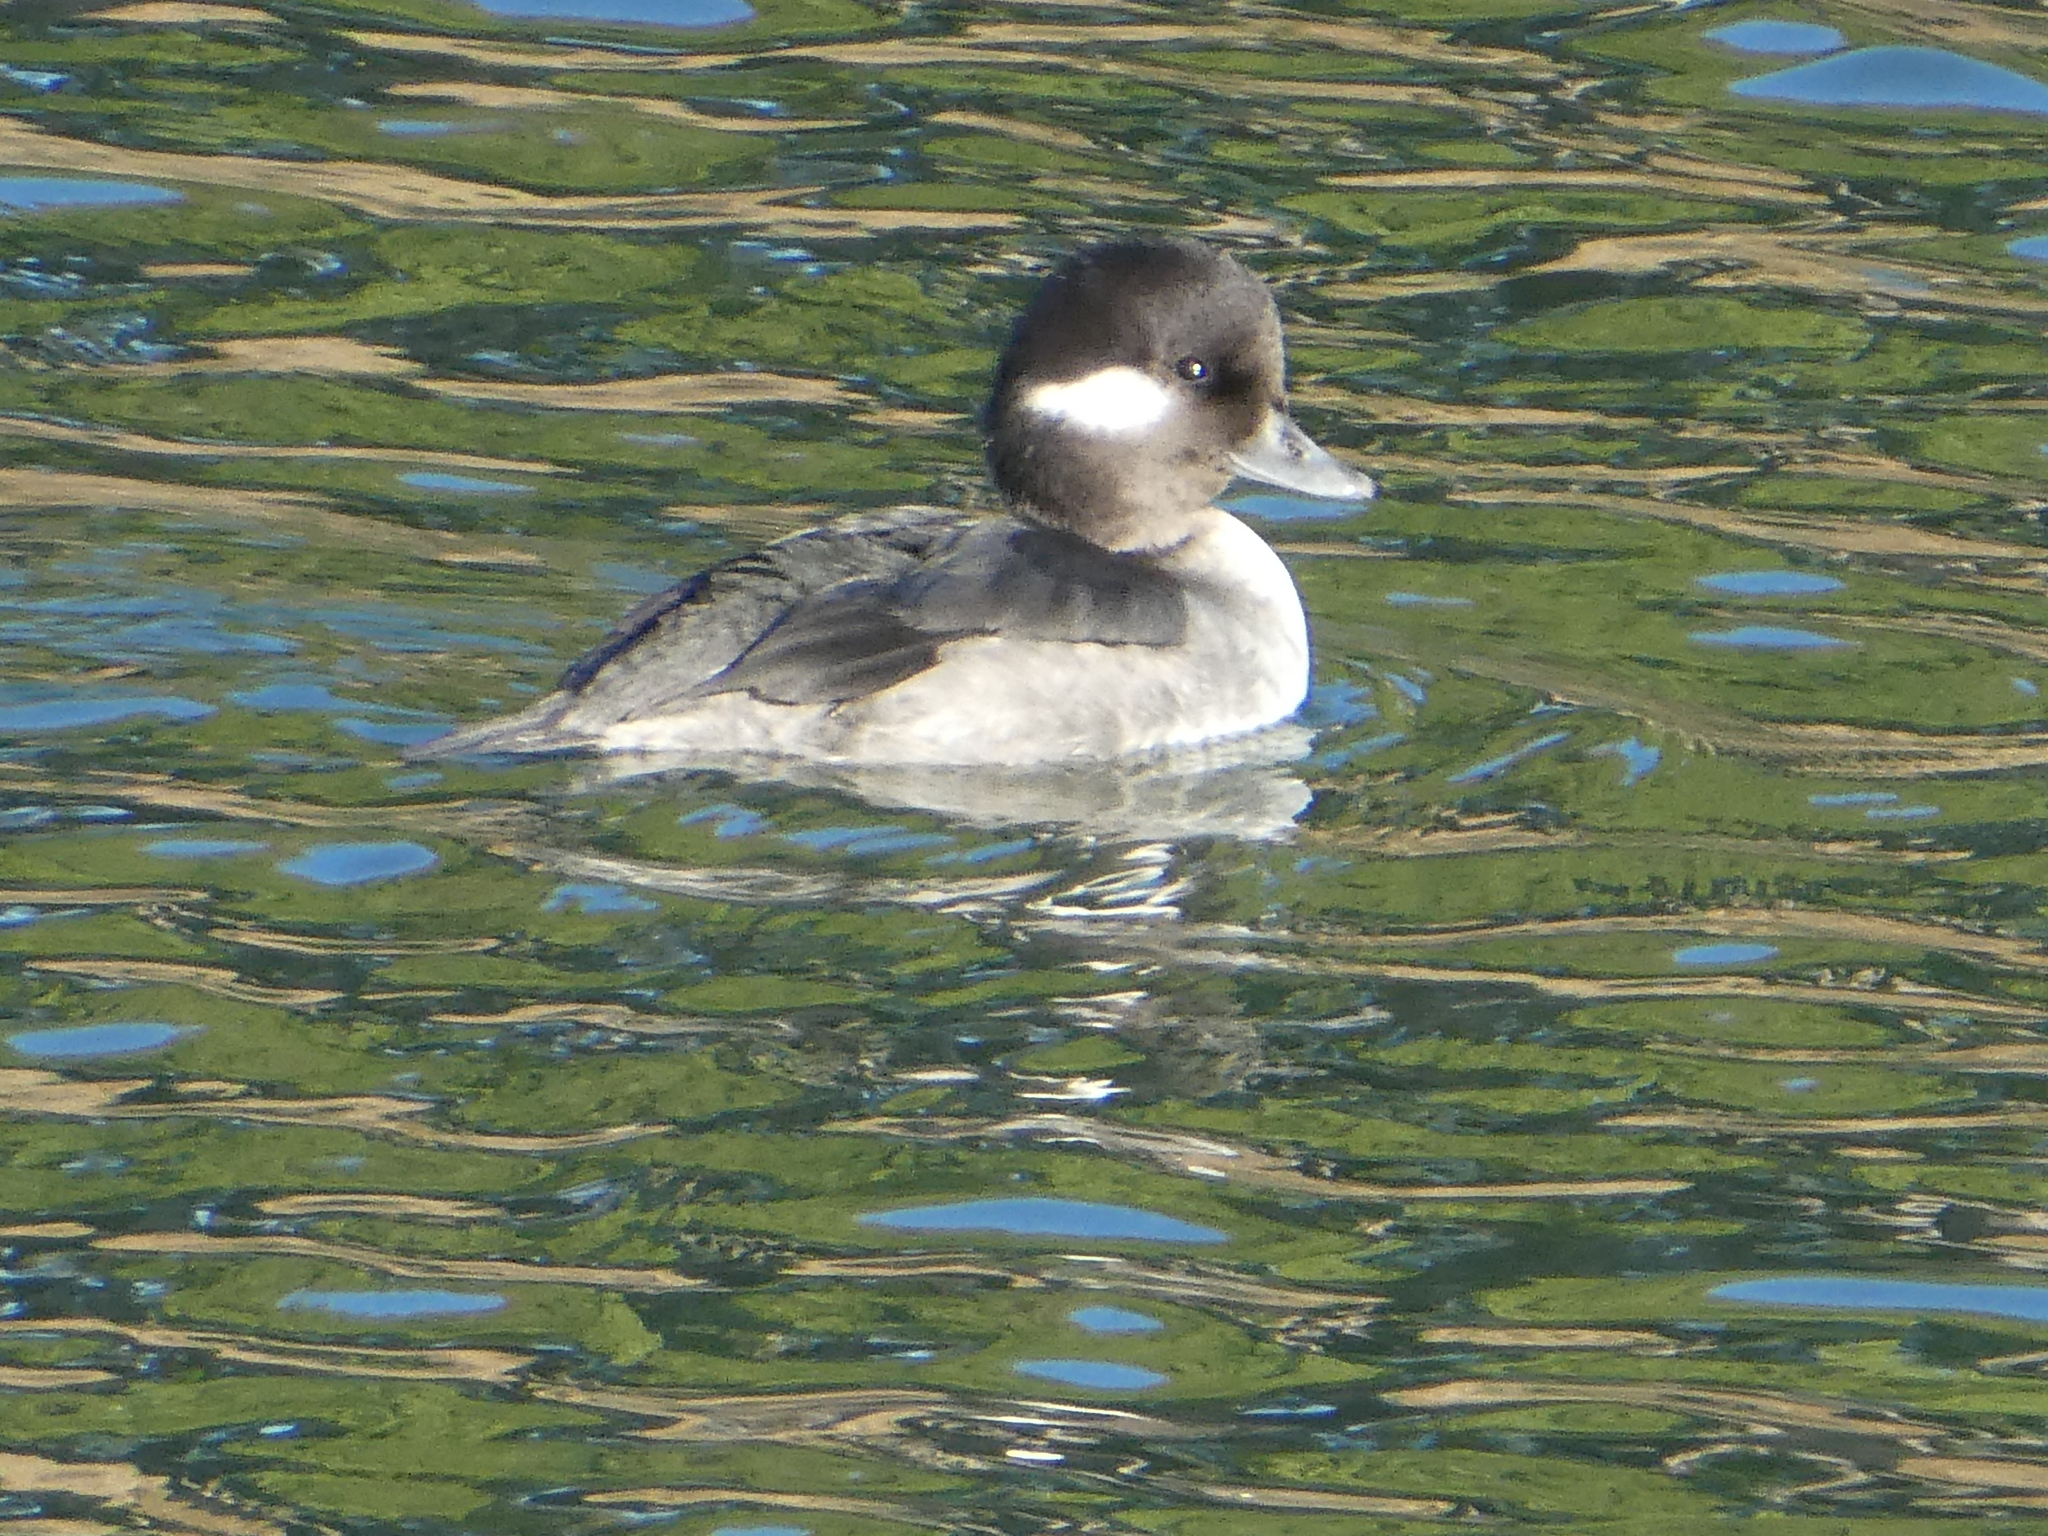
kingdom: Animalia
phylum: Chordata
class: Aves
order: Anseriformes
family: Anatidae
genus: Bucephala
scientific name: Bucephala albeola
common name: Bufflehead
